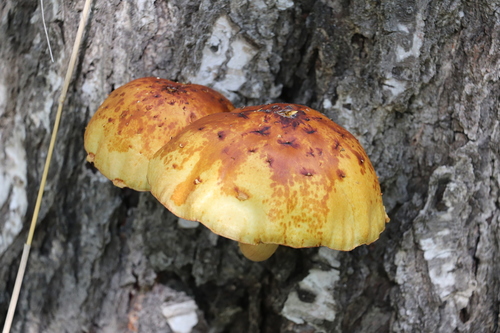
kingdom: Fungi
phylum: Basidiomycota
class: Agaricomycetes
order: Agaricales
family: Strophariaceae
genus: Pholiota
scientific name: Pholiota
